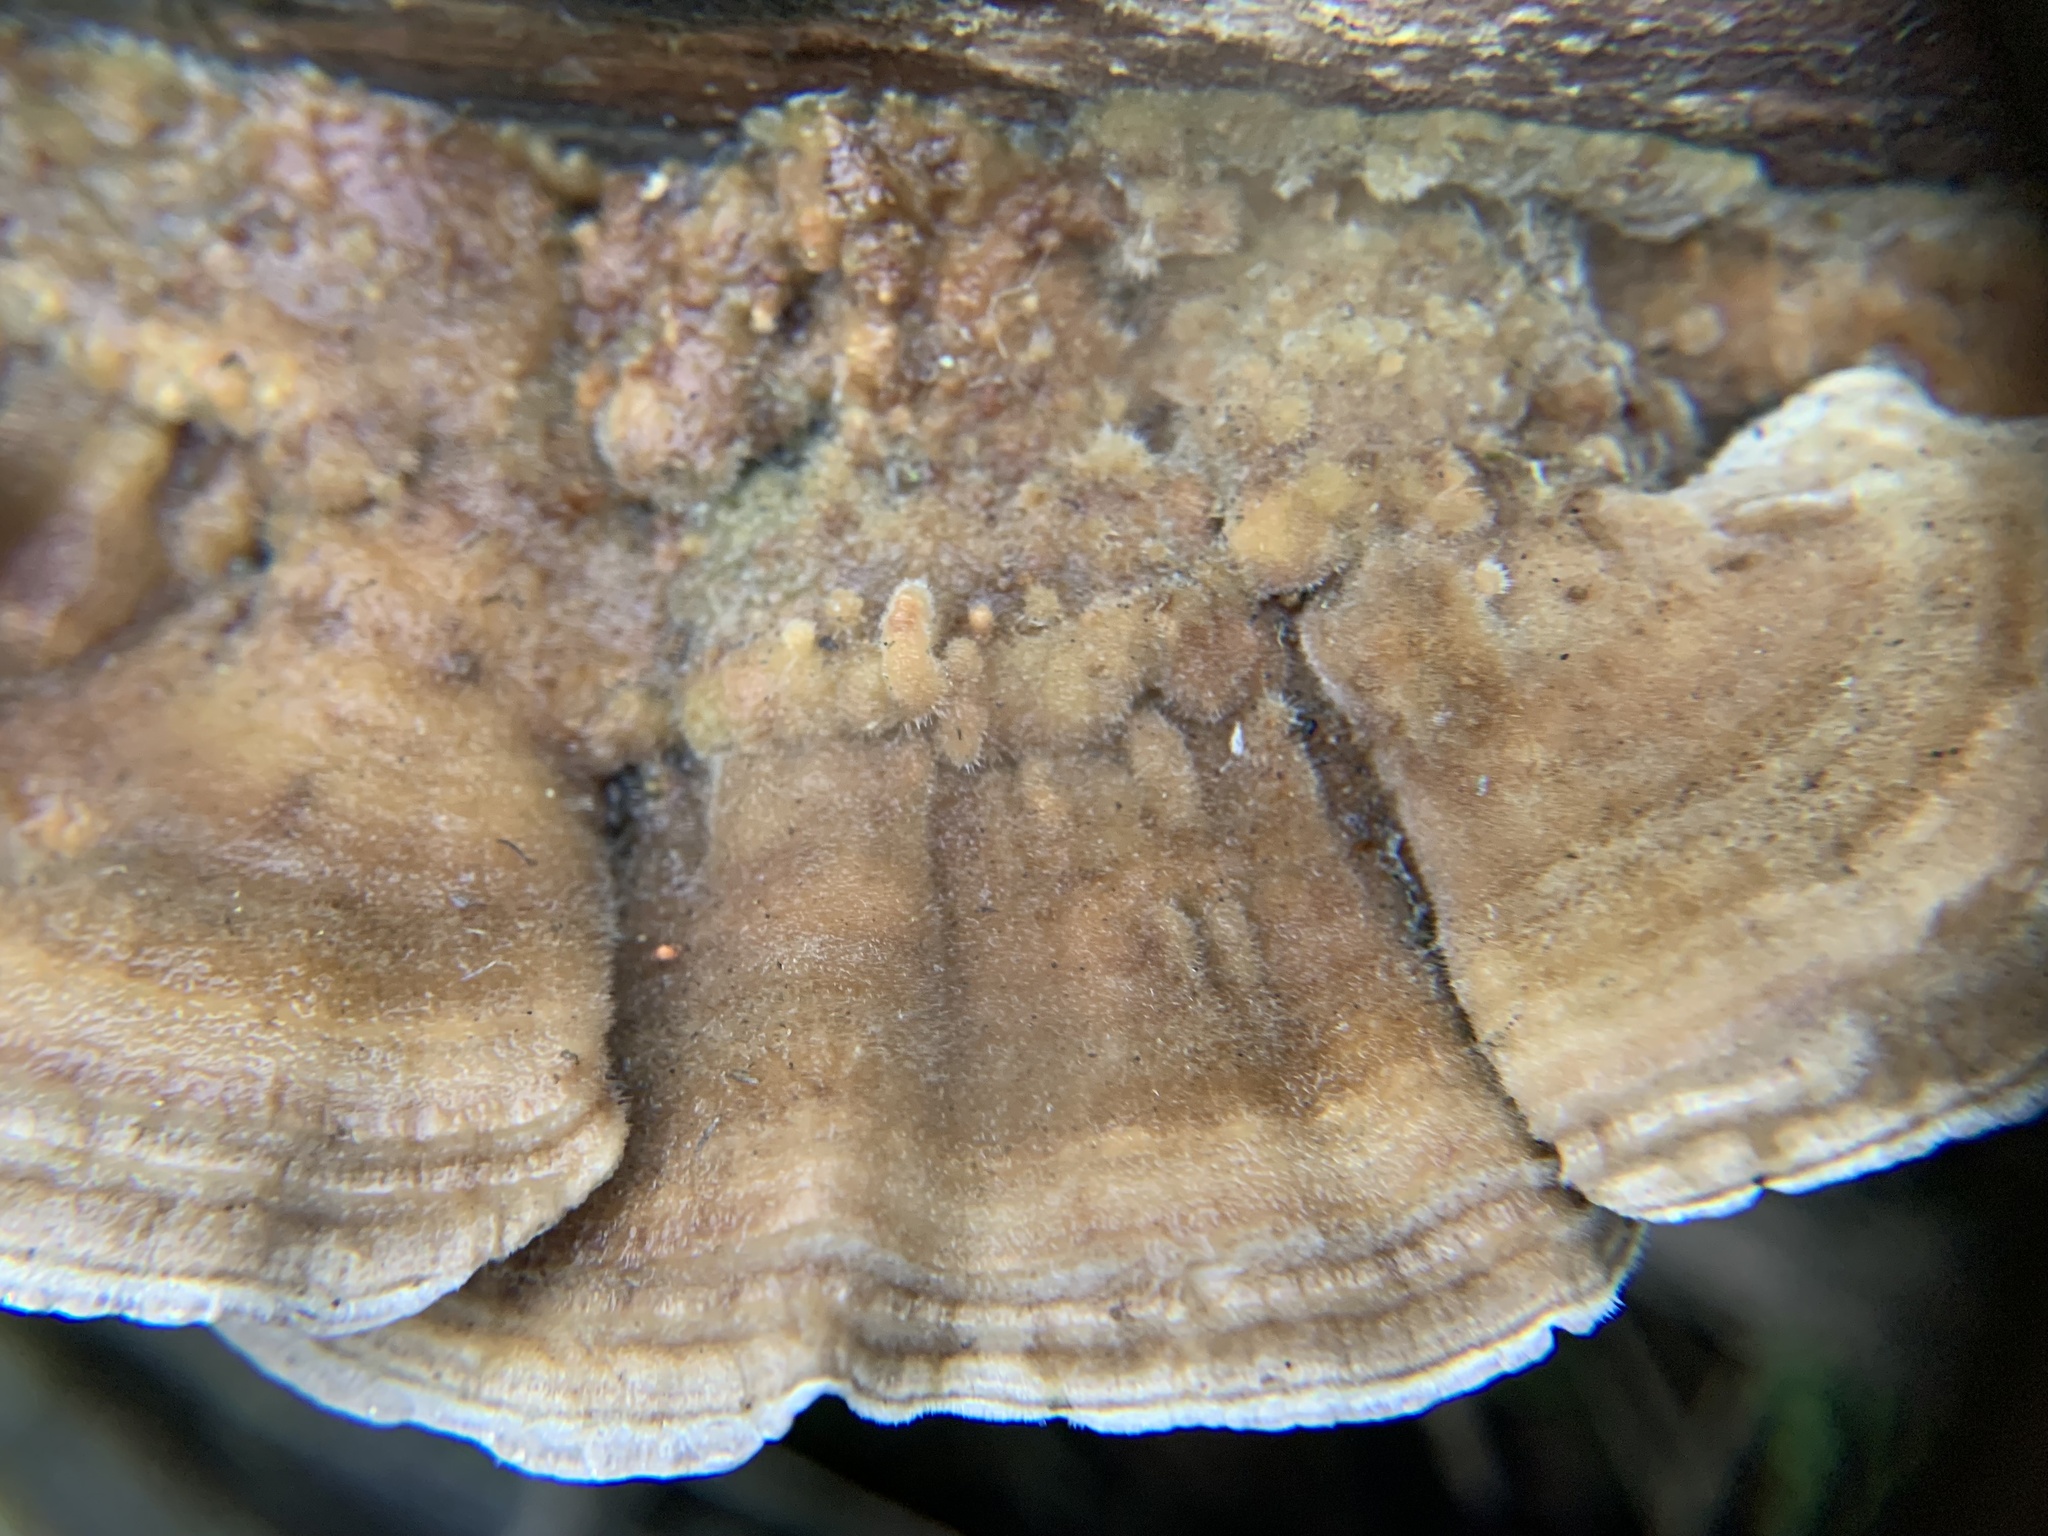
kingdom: Fungi
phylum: Basidiomycota
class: Agaricomycetes
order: Polyporales
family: Polyporaceae
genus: Trametes
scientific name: Trametes ochracea
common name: Ochre bracket
